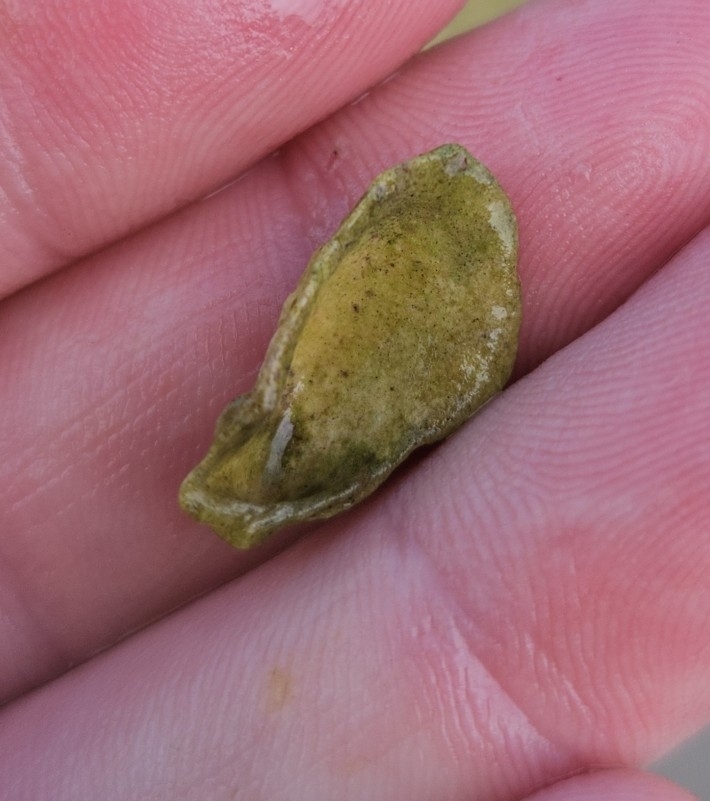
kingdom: Animalia
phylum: Mollusca
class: Bivalvia
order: Carditida
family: Carditidae
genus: Cardita
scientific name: Cardita distorta
